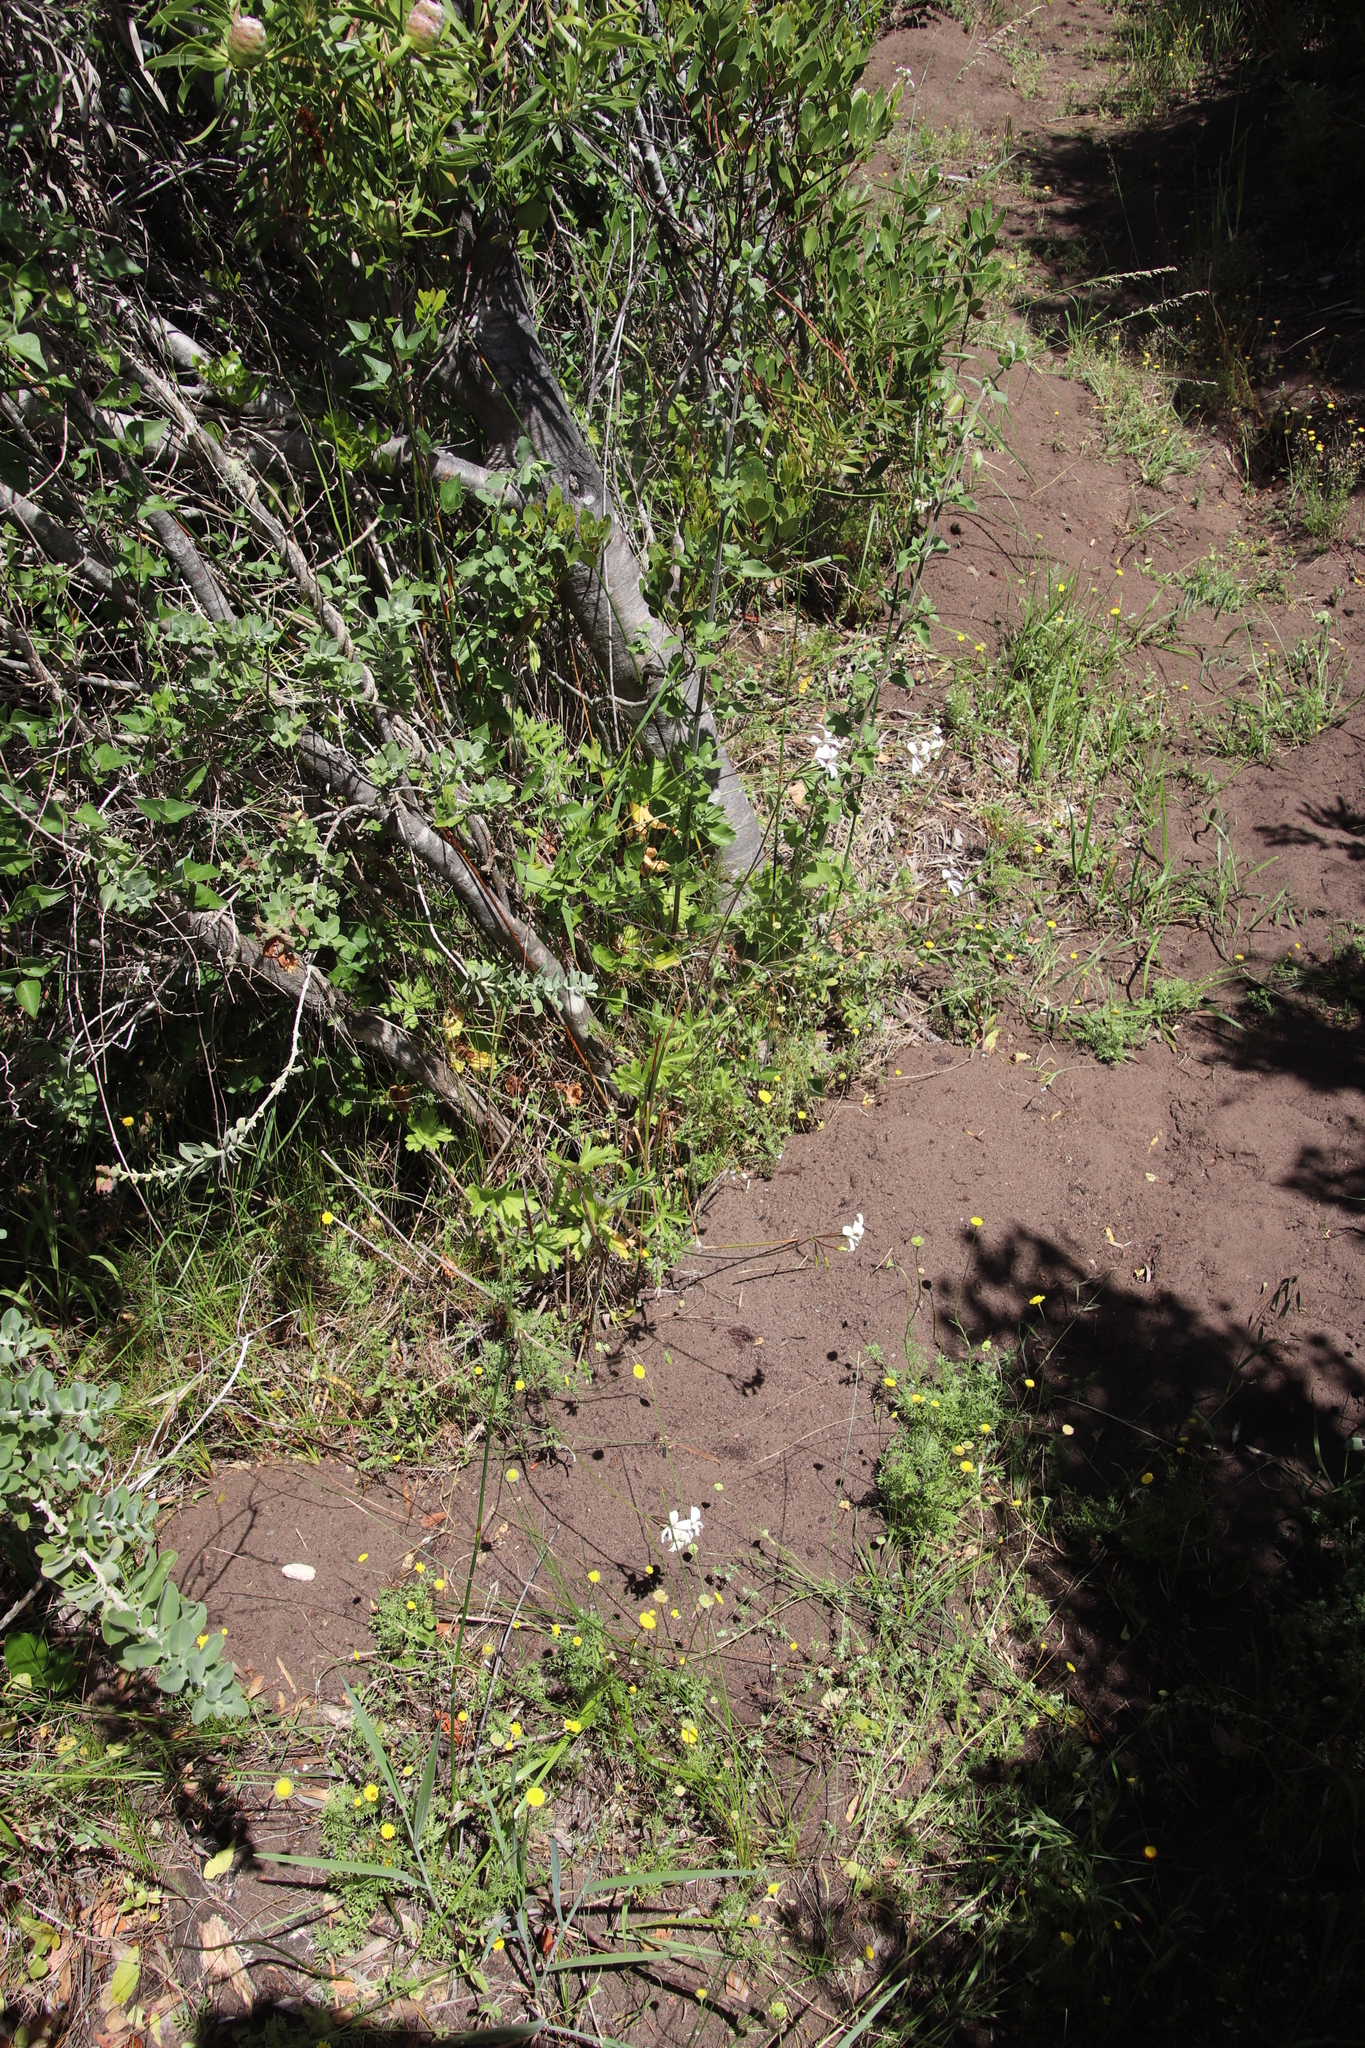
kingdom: Plantae
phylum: Tracheophyta
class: Magnoliopsida
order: Geraniales
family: Geraniaceae
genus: Pelargonium
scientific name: Pelargonium alchemilloides
